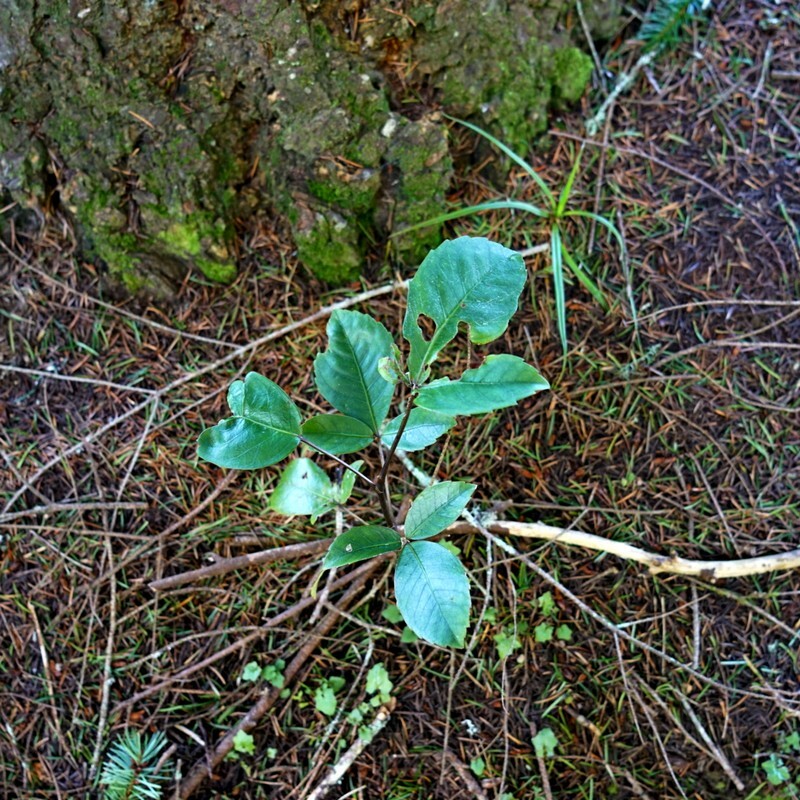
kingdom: Plantae
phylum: Tracheophyta
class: Magnoliopsida
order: Apiales
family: Araliaceae
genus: Neopanax
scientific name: Neopanax colensoi
